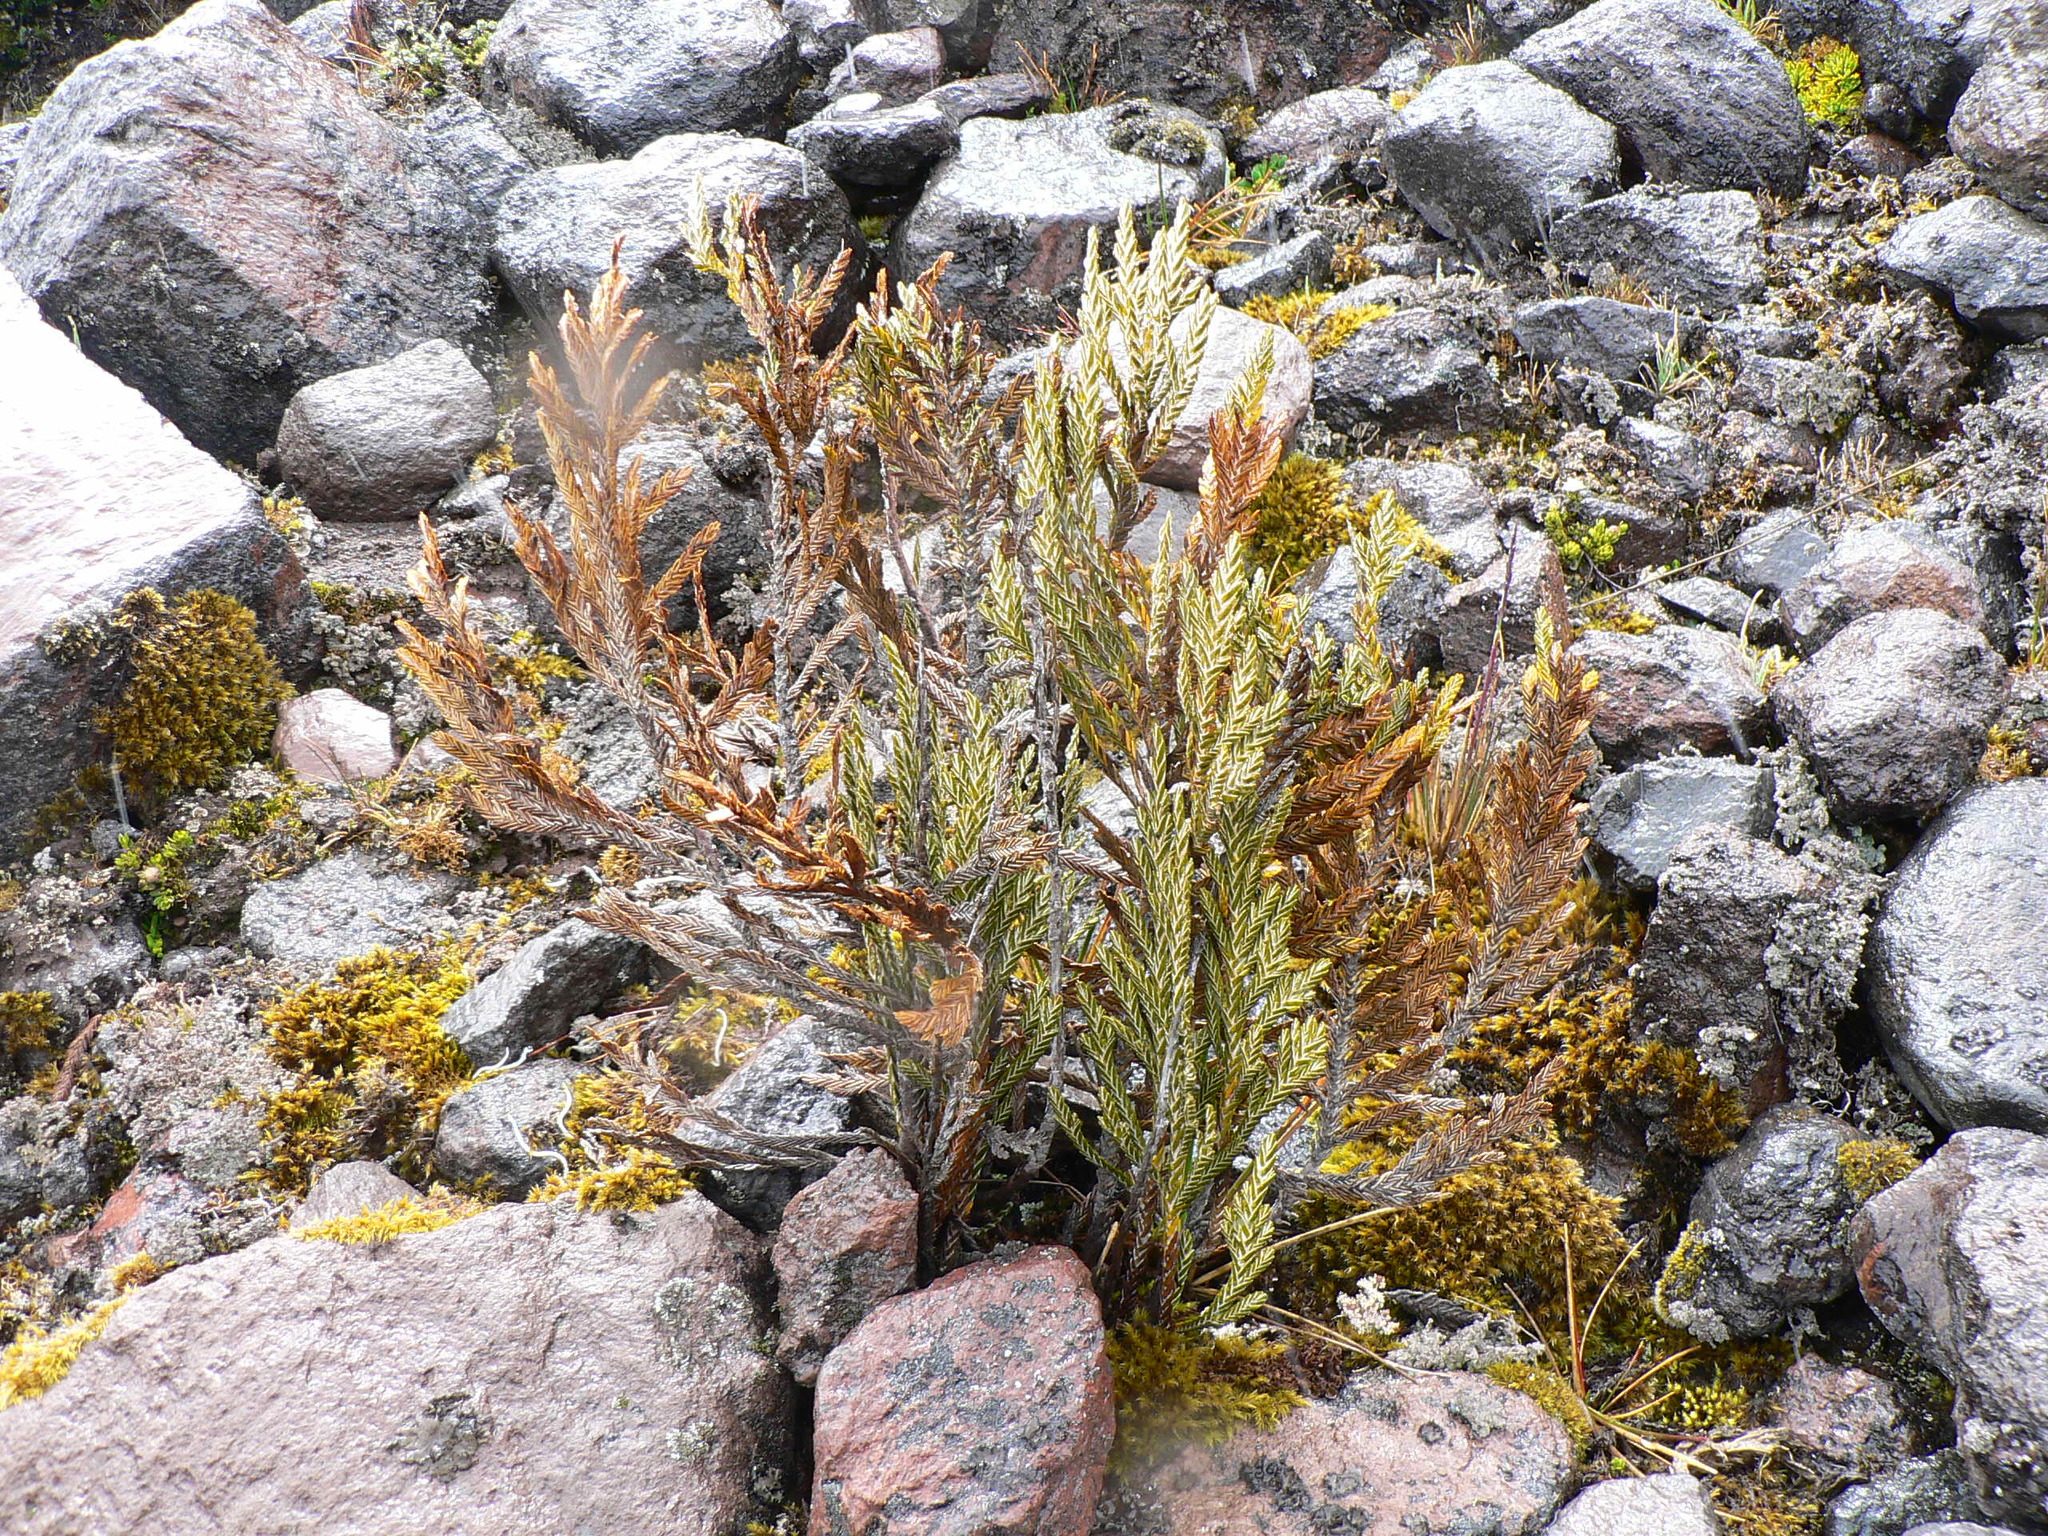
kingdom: Plantae
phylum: Tracheophyta
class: Magnoliopsida
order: Asterales
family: Asteraceae
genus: Andicolea
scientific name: Andicolea thuyoides
